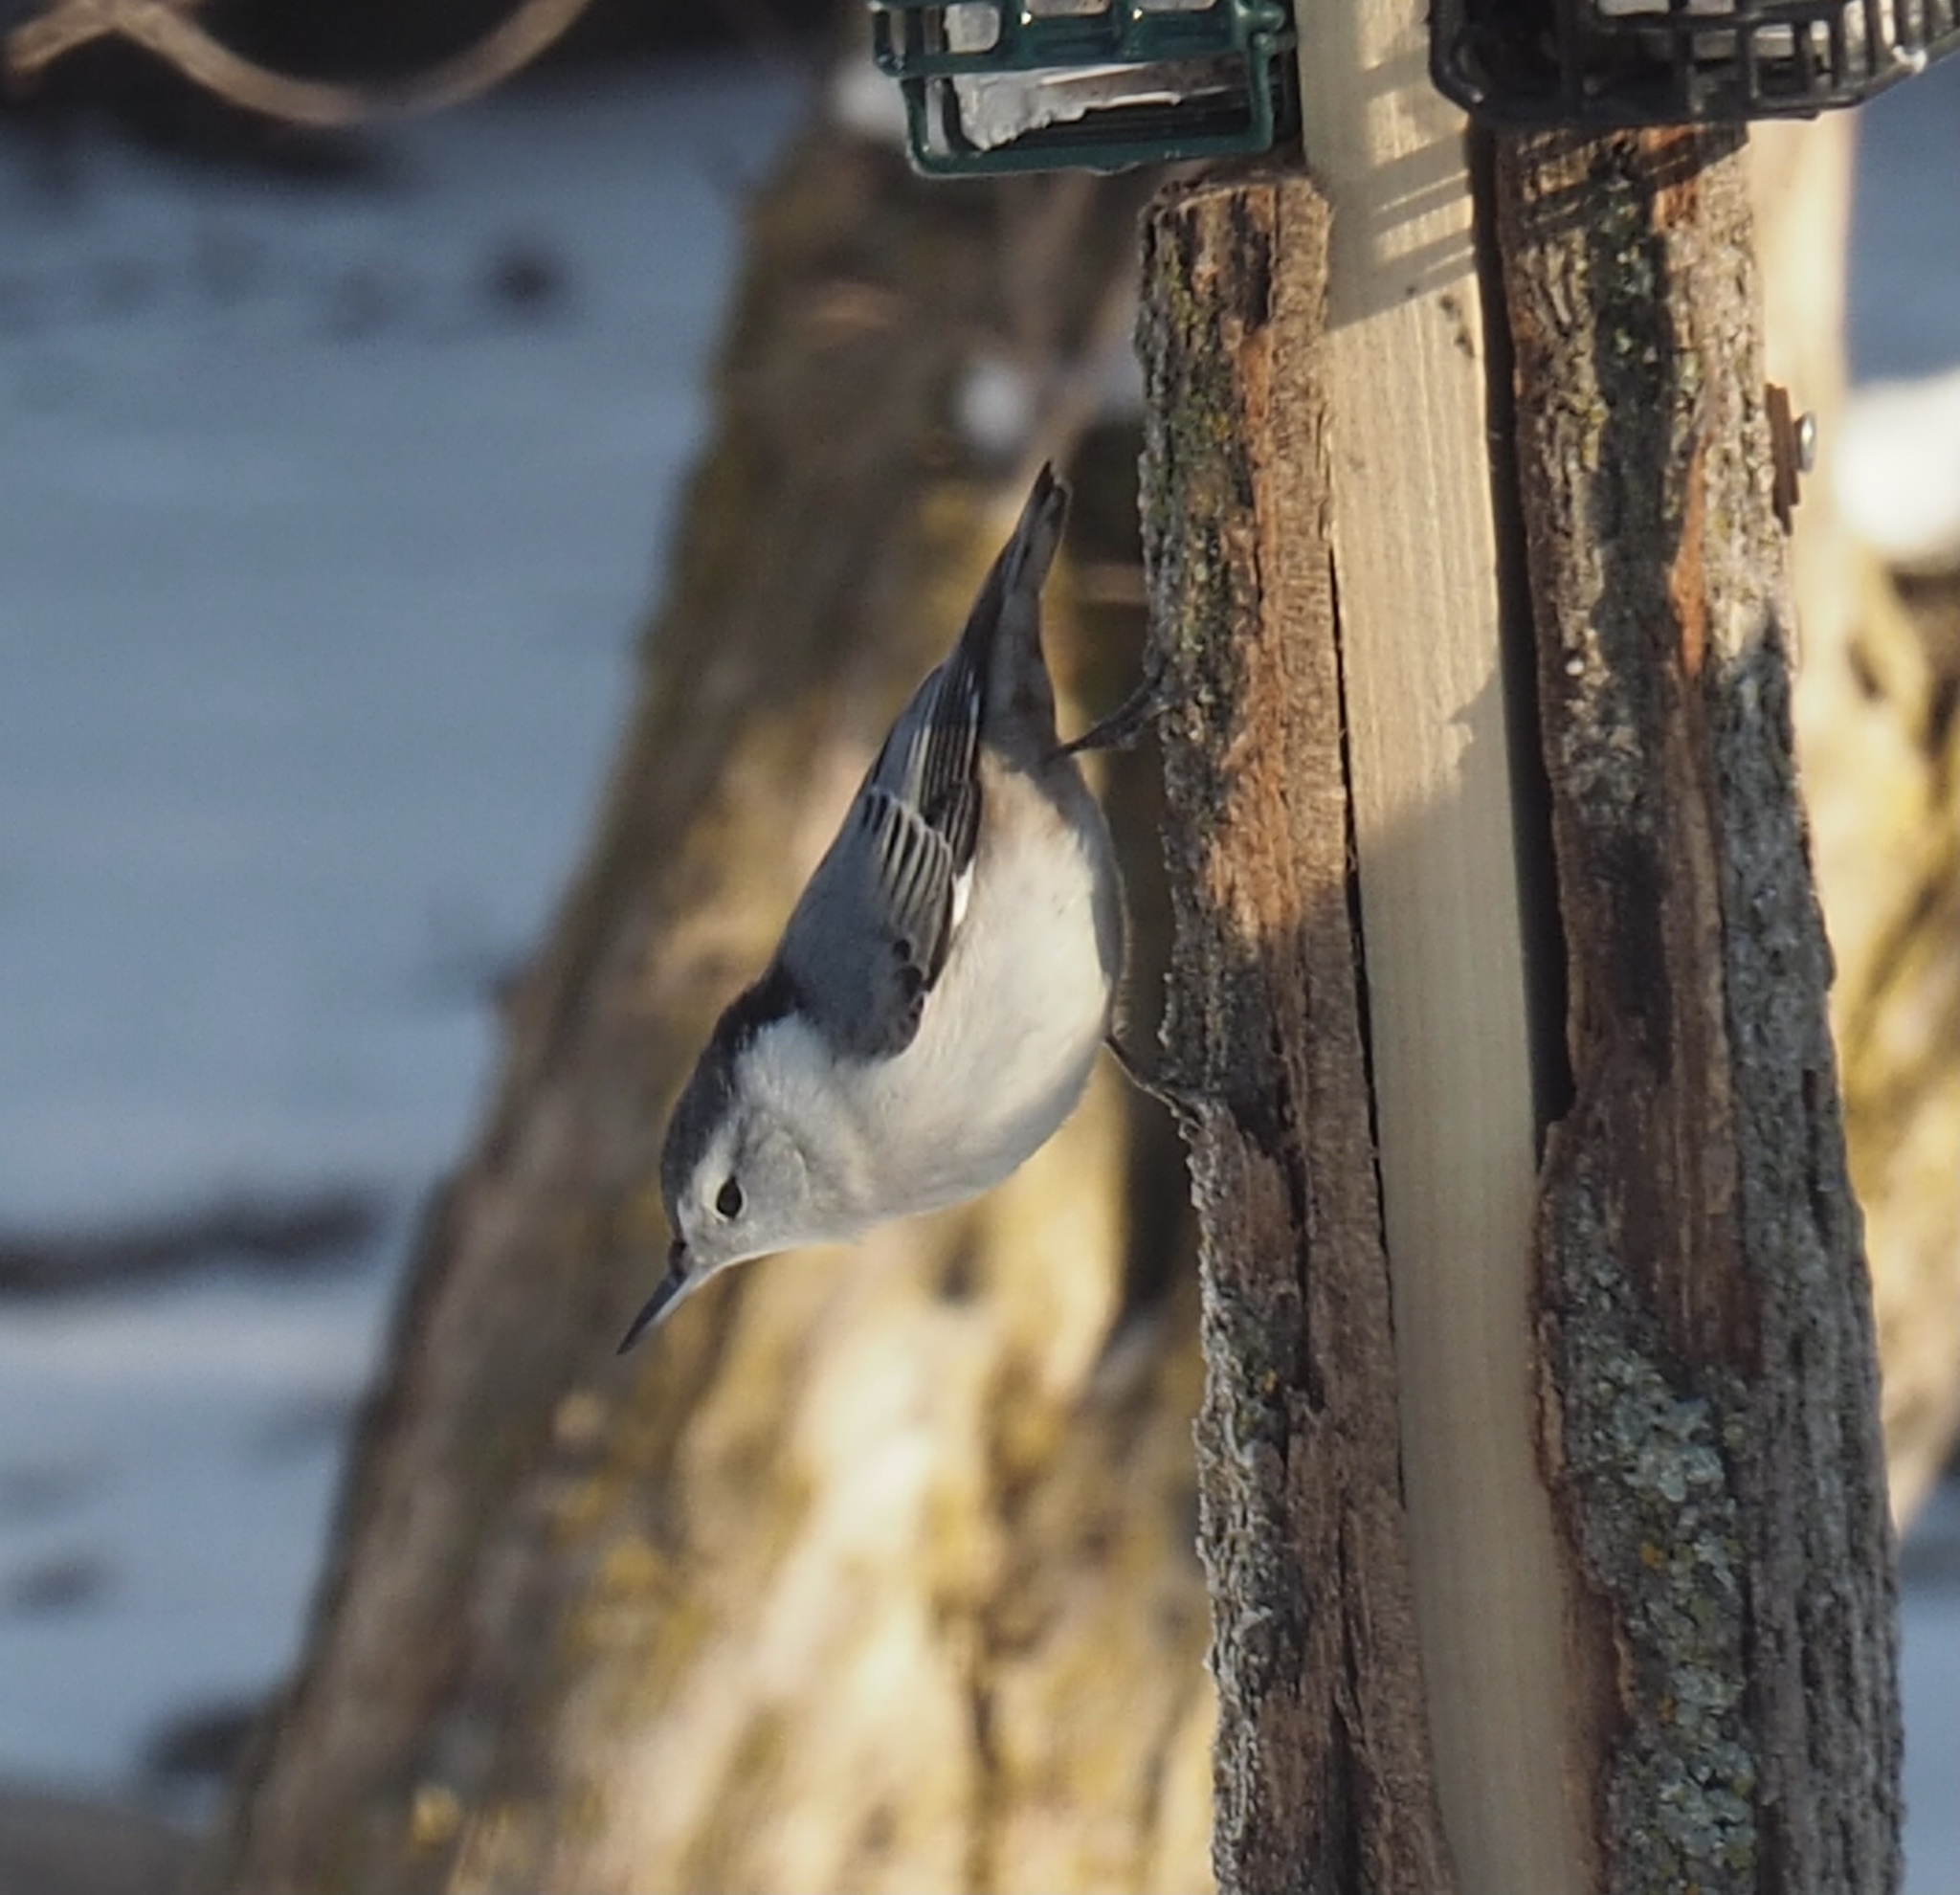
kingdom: Animalia
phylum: Chordata
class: Aves
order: Passeriformes
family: Sittidae
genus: Sitta
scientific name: Sitta carolinensis
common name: White-breasted nuthatch
